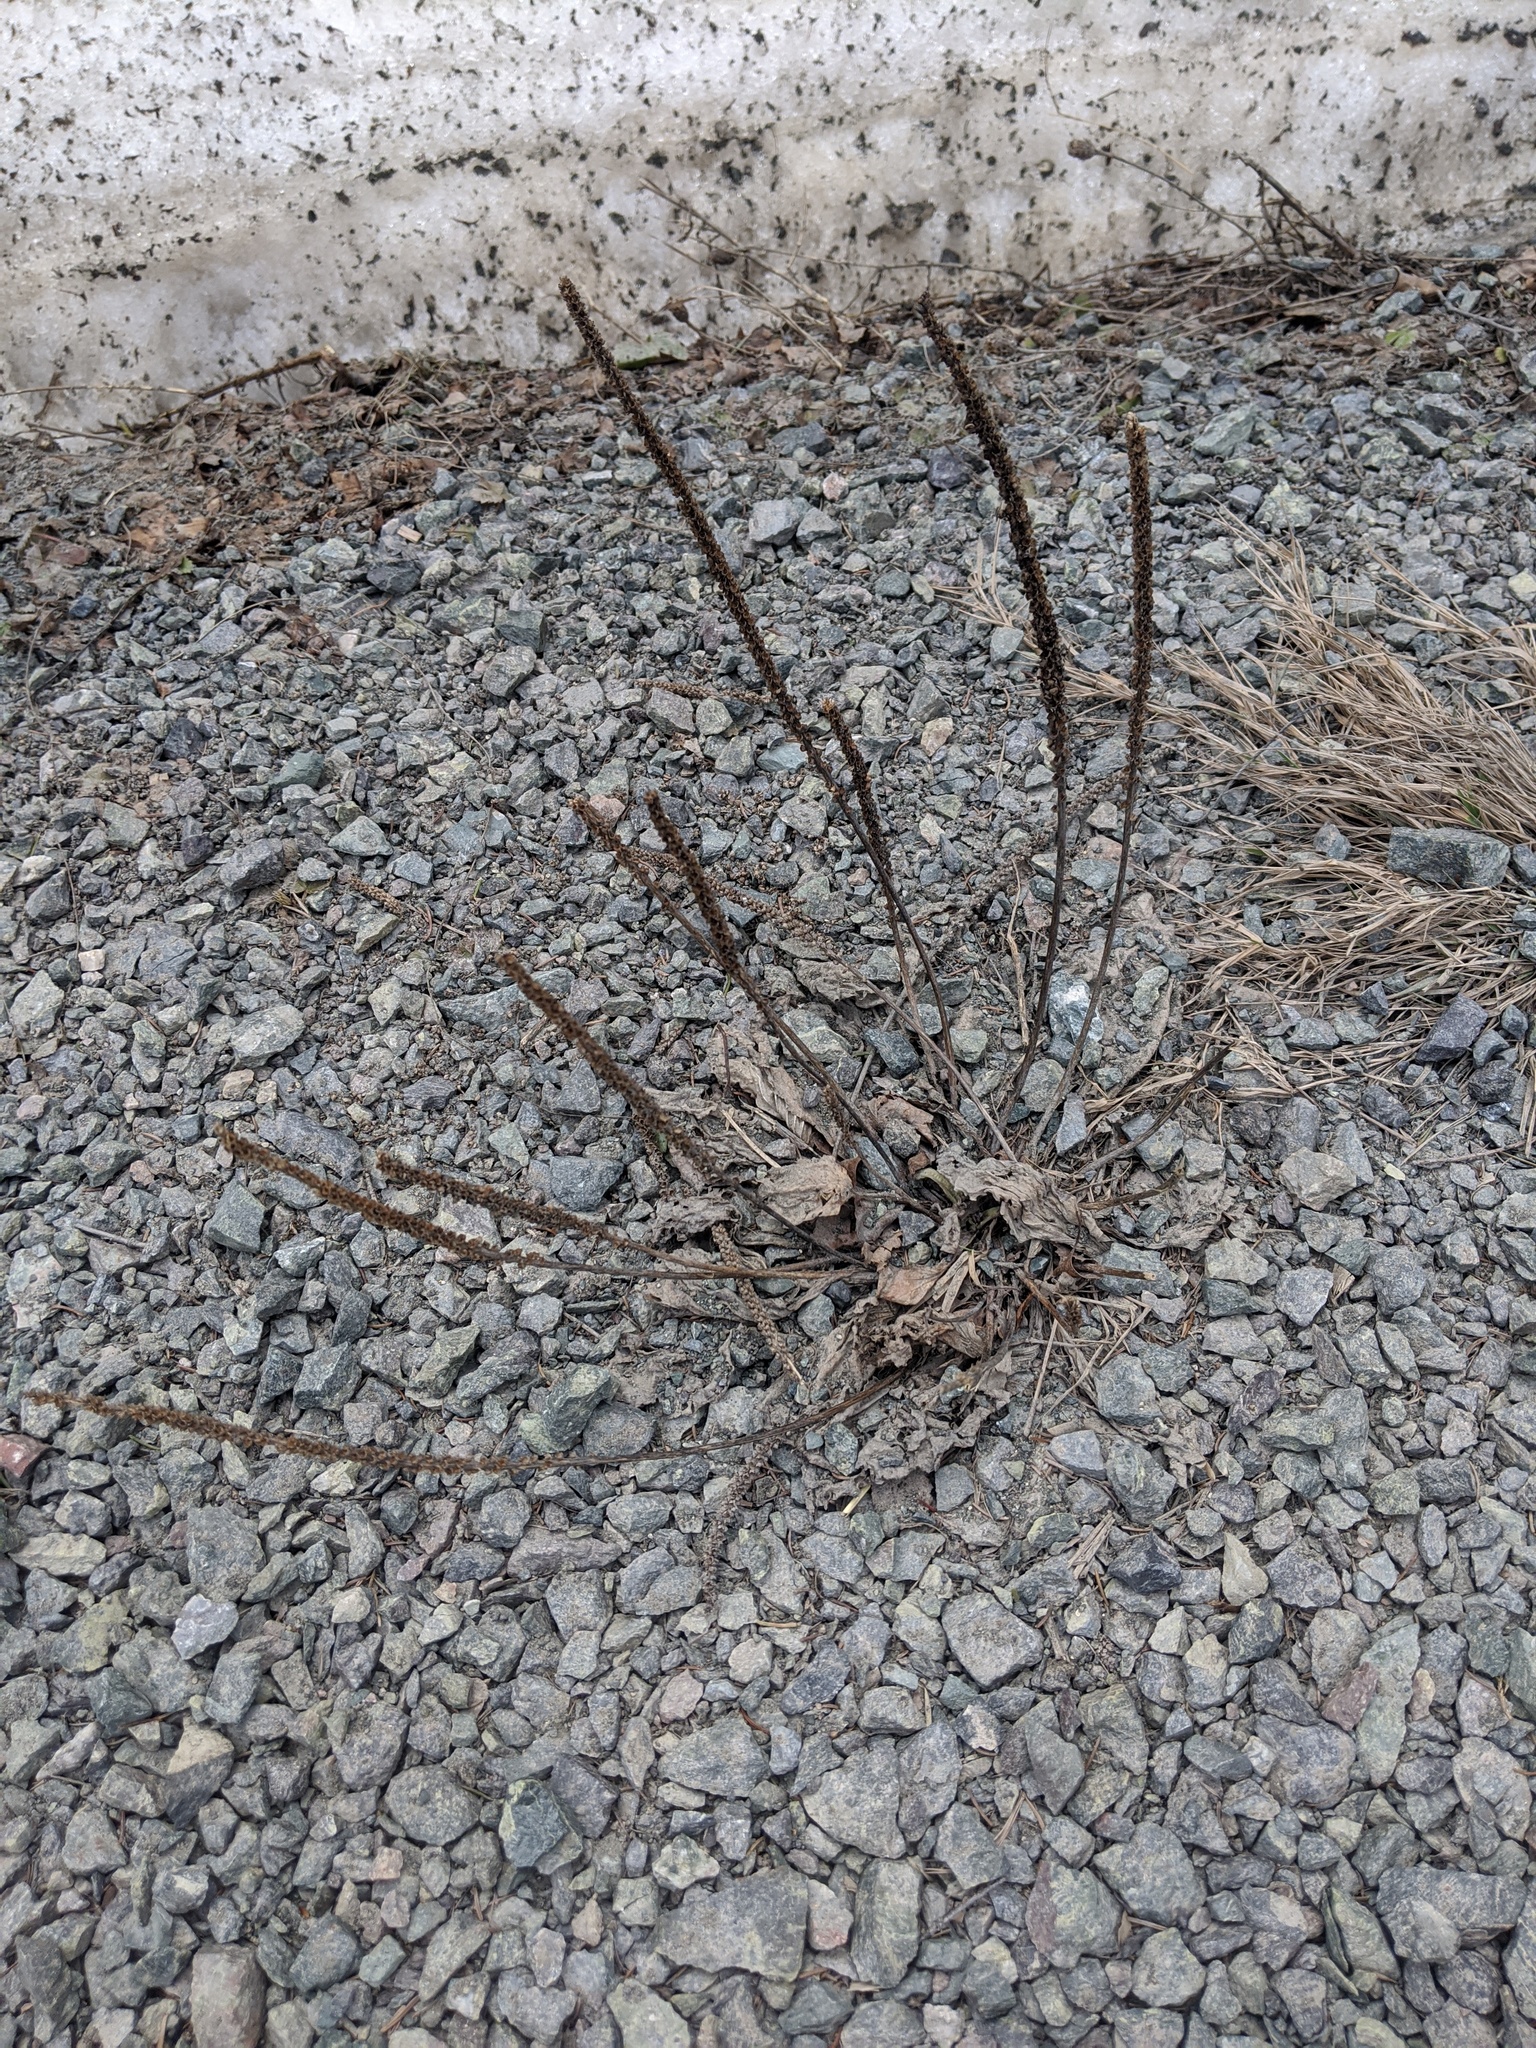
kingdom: Plantae
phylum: Tracheophyta
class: Magnoliopsida
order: Lamiales
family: Plantaginaceae
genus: Plantago
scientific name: Plantago major
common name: Common plantain
